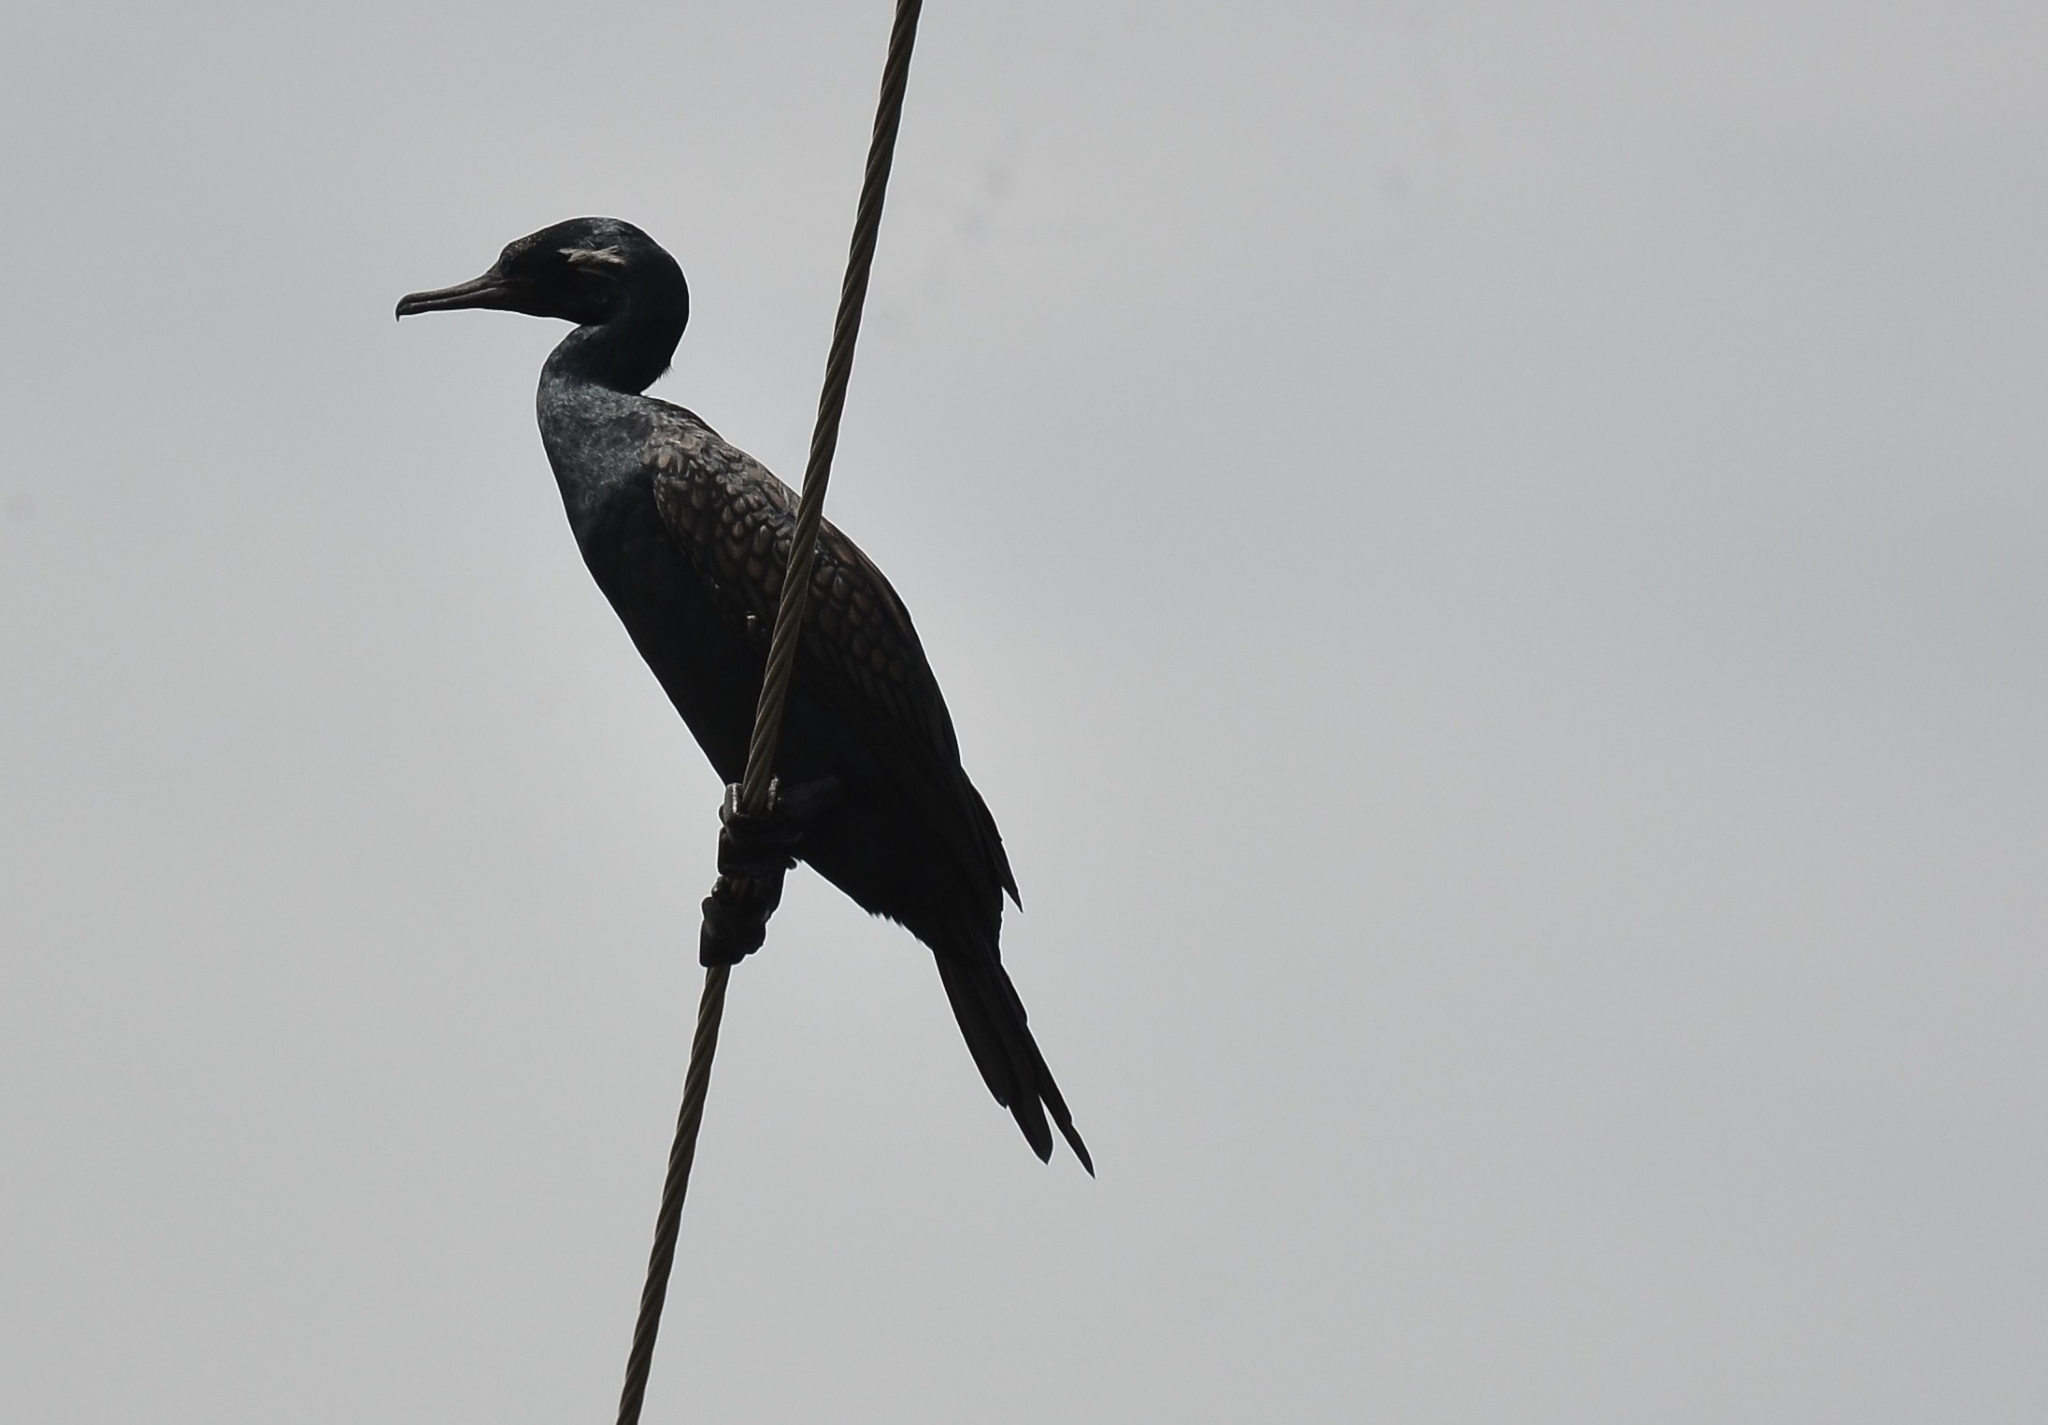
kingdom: Animalia
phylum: Chordata
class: Aves
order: Suliformes
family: Phalacrocoracidae
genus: Phalacrocorax
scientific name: Phalacrocorax fuscicollis
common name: Indian cormorant
